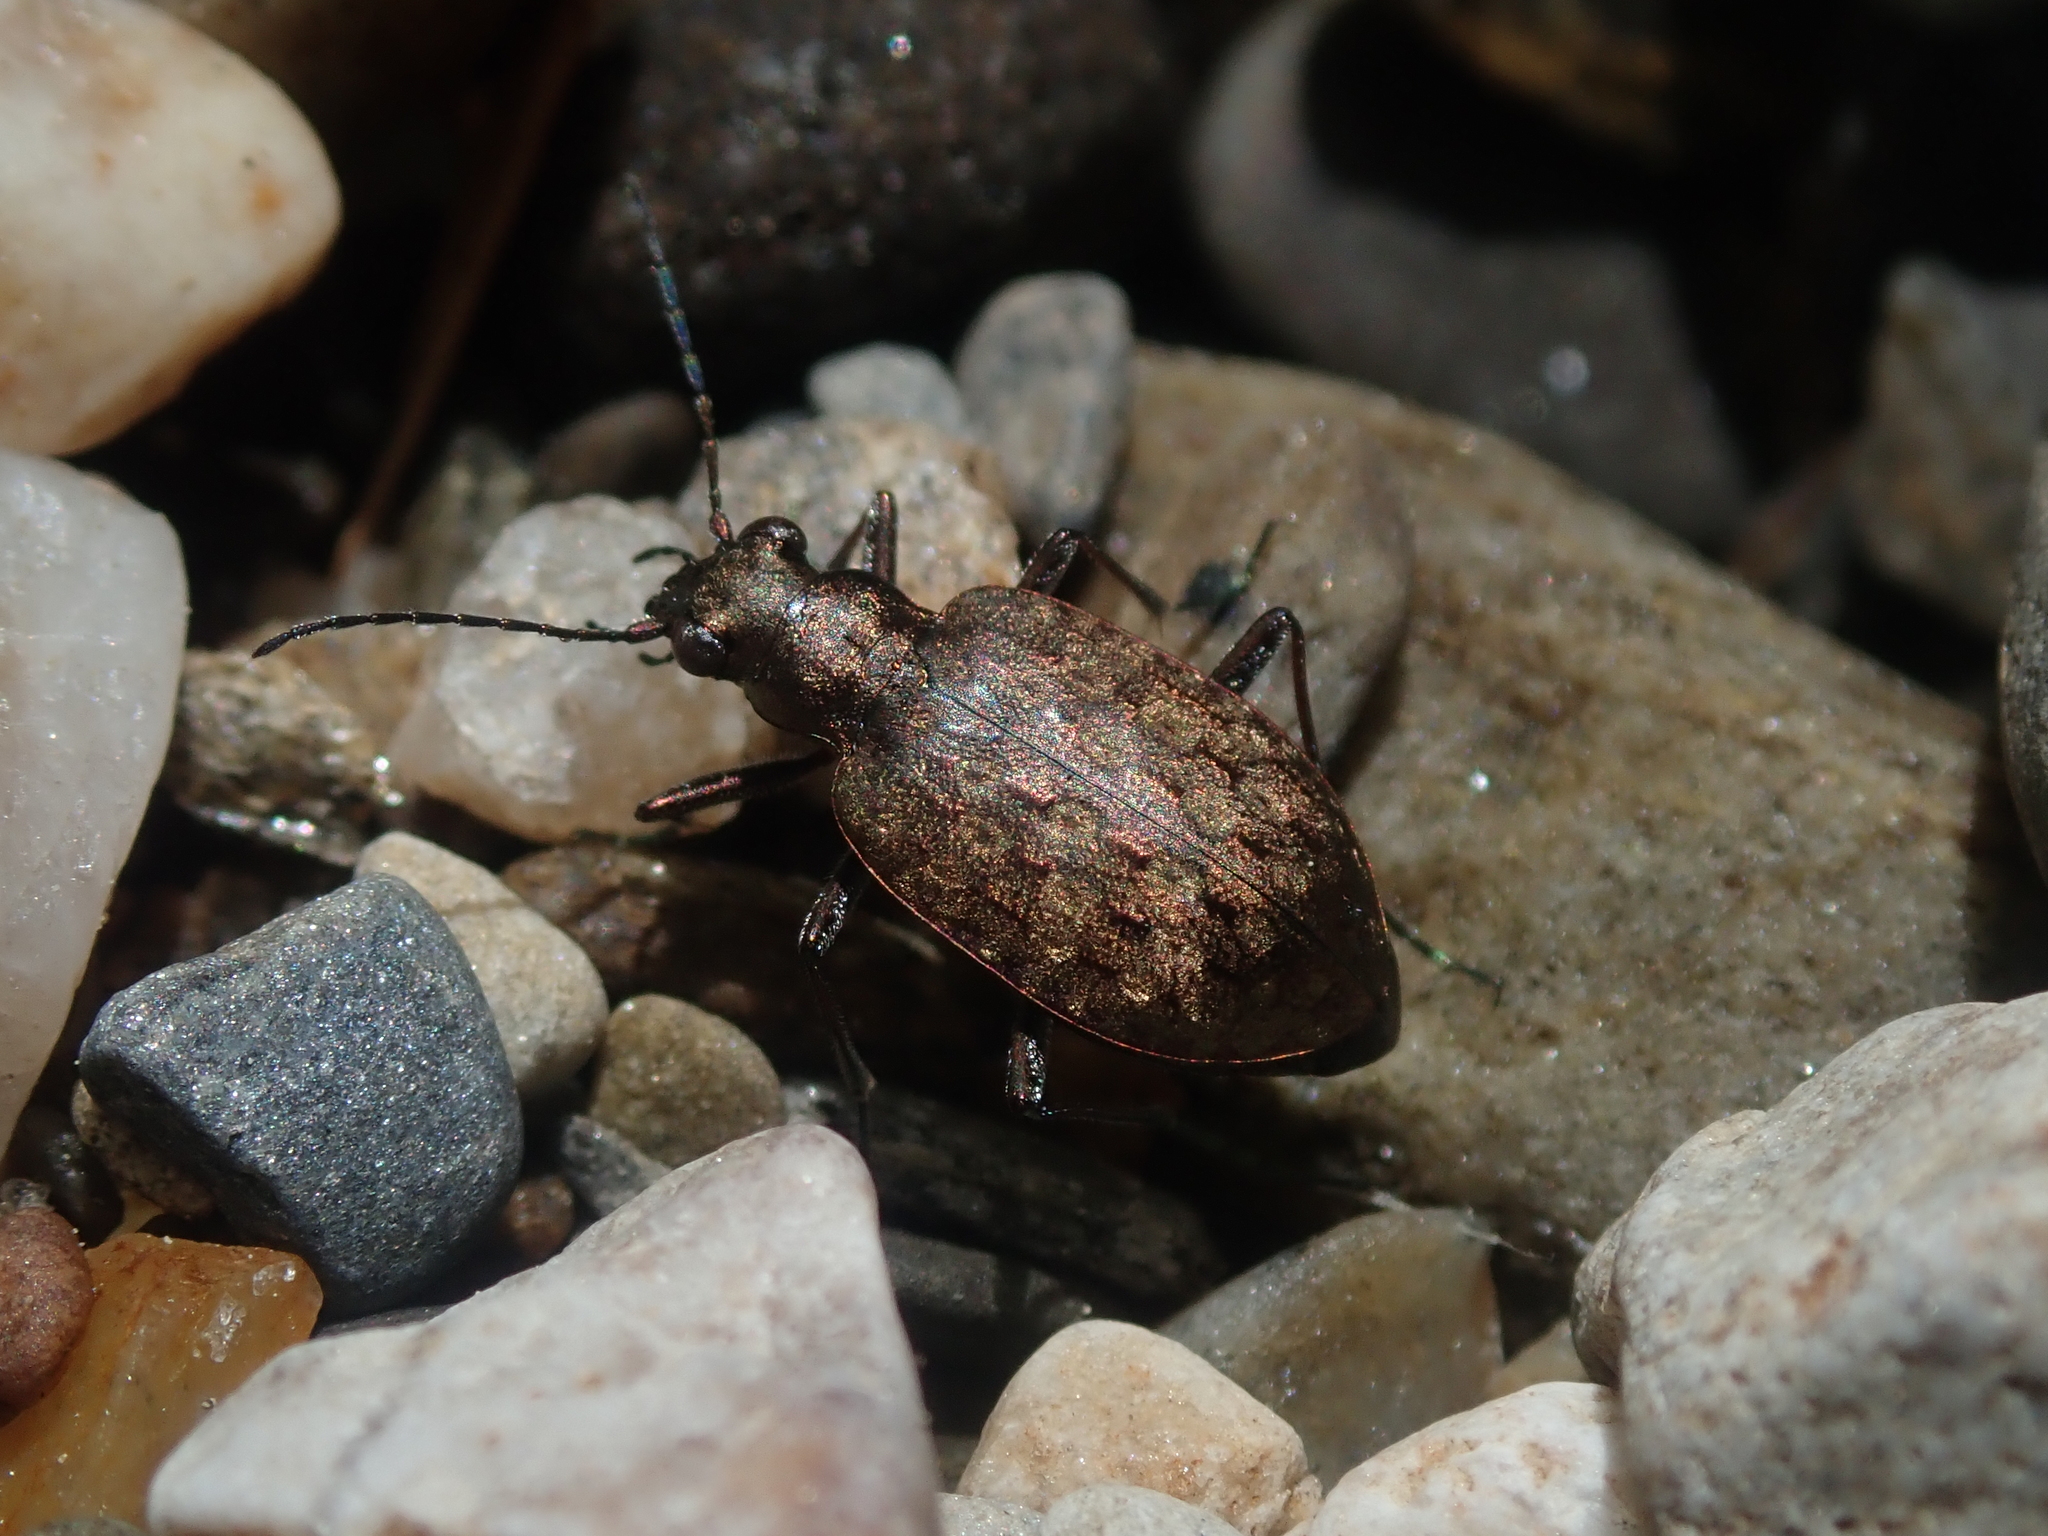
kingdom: Animalia
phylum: Arthropoda
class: Insecta
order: Coleoptera
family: Carabidae
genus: Opisthius
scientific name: Opisthius richardsoni
